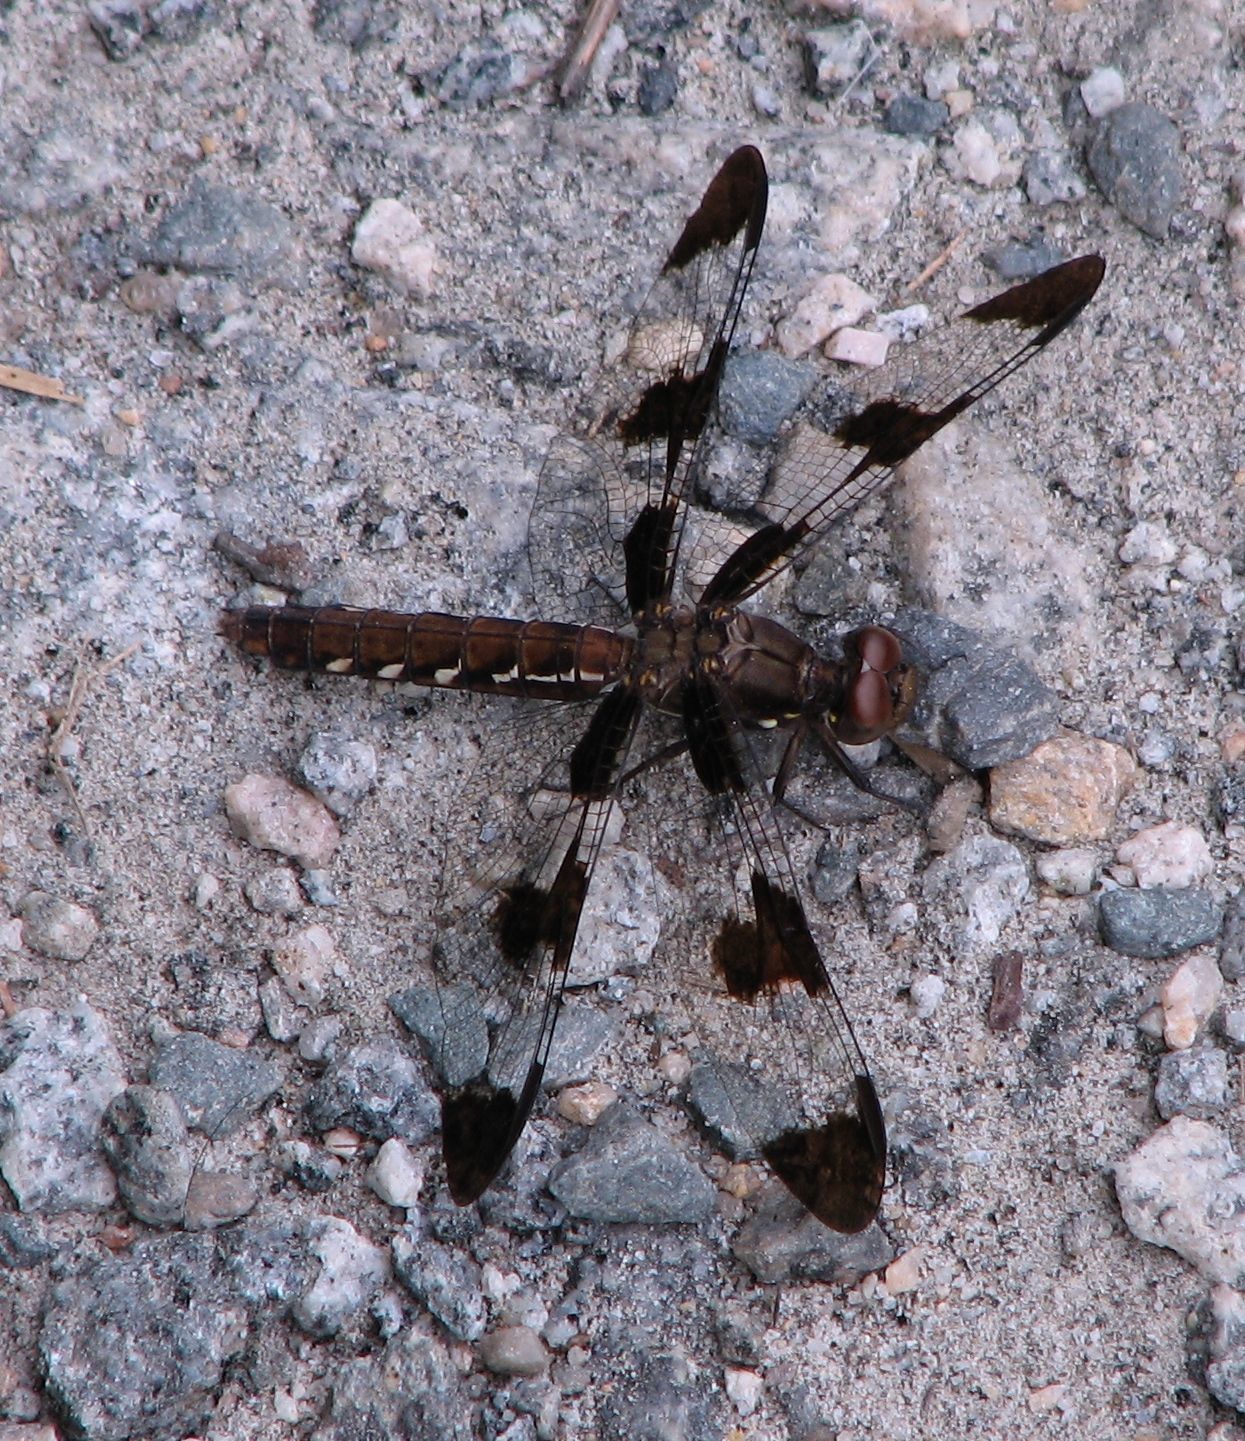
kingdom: Animalia
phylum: Arthropoda
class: Insecta
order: Odonata
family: Libellulidae
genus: Plathemis
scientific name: Plathemis lydia
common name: Common whitetail
